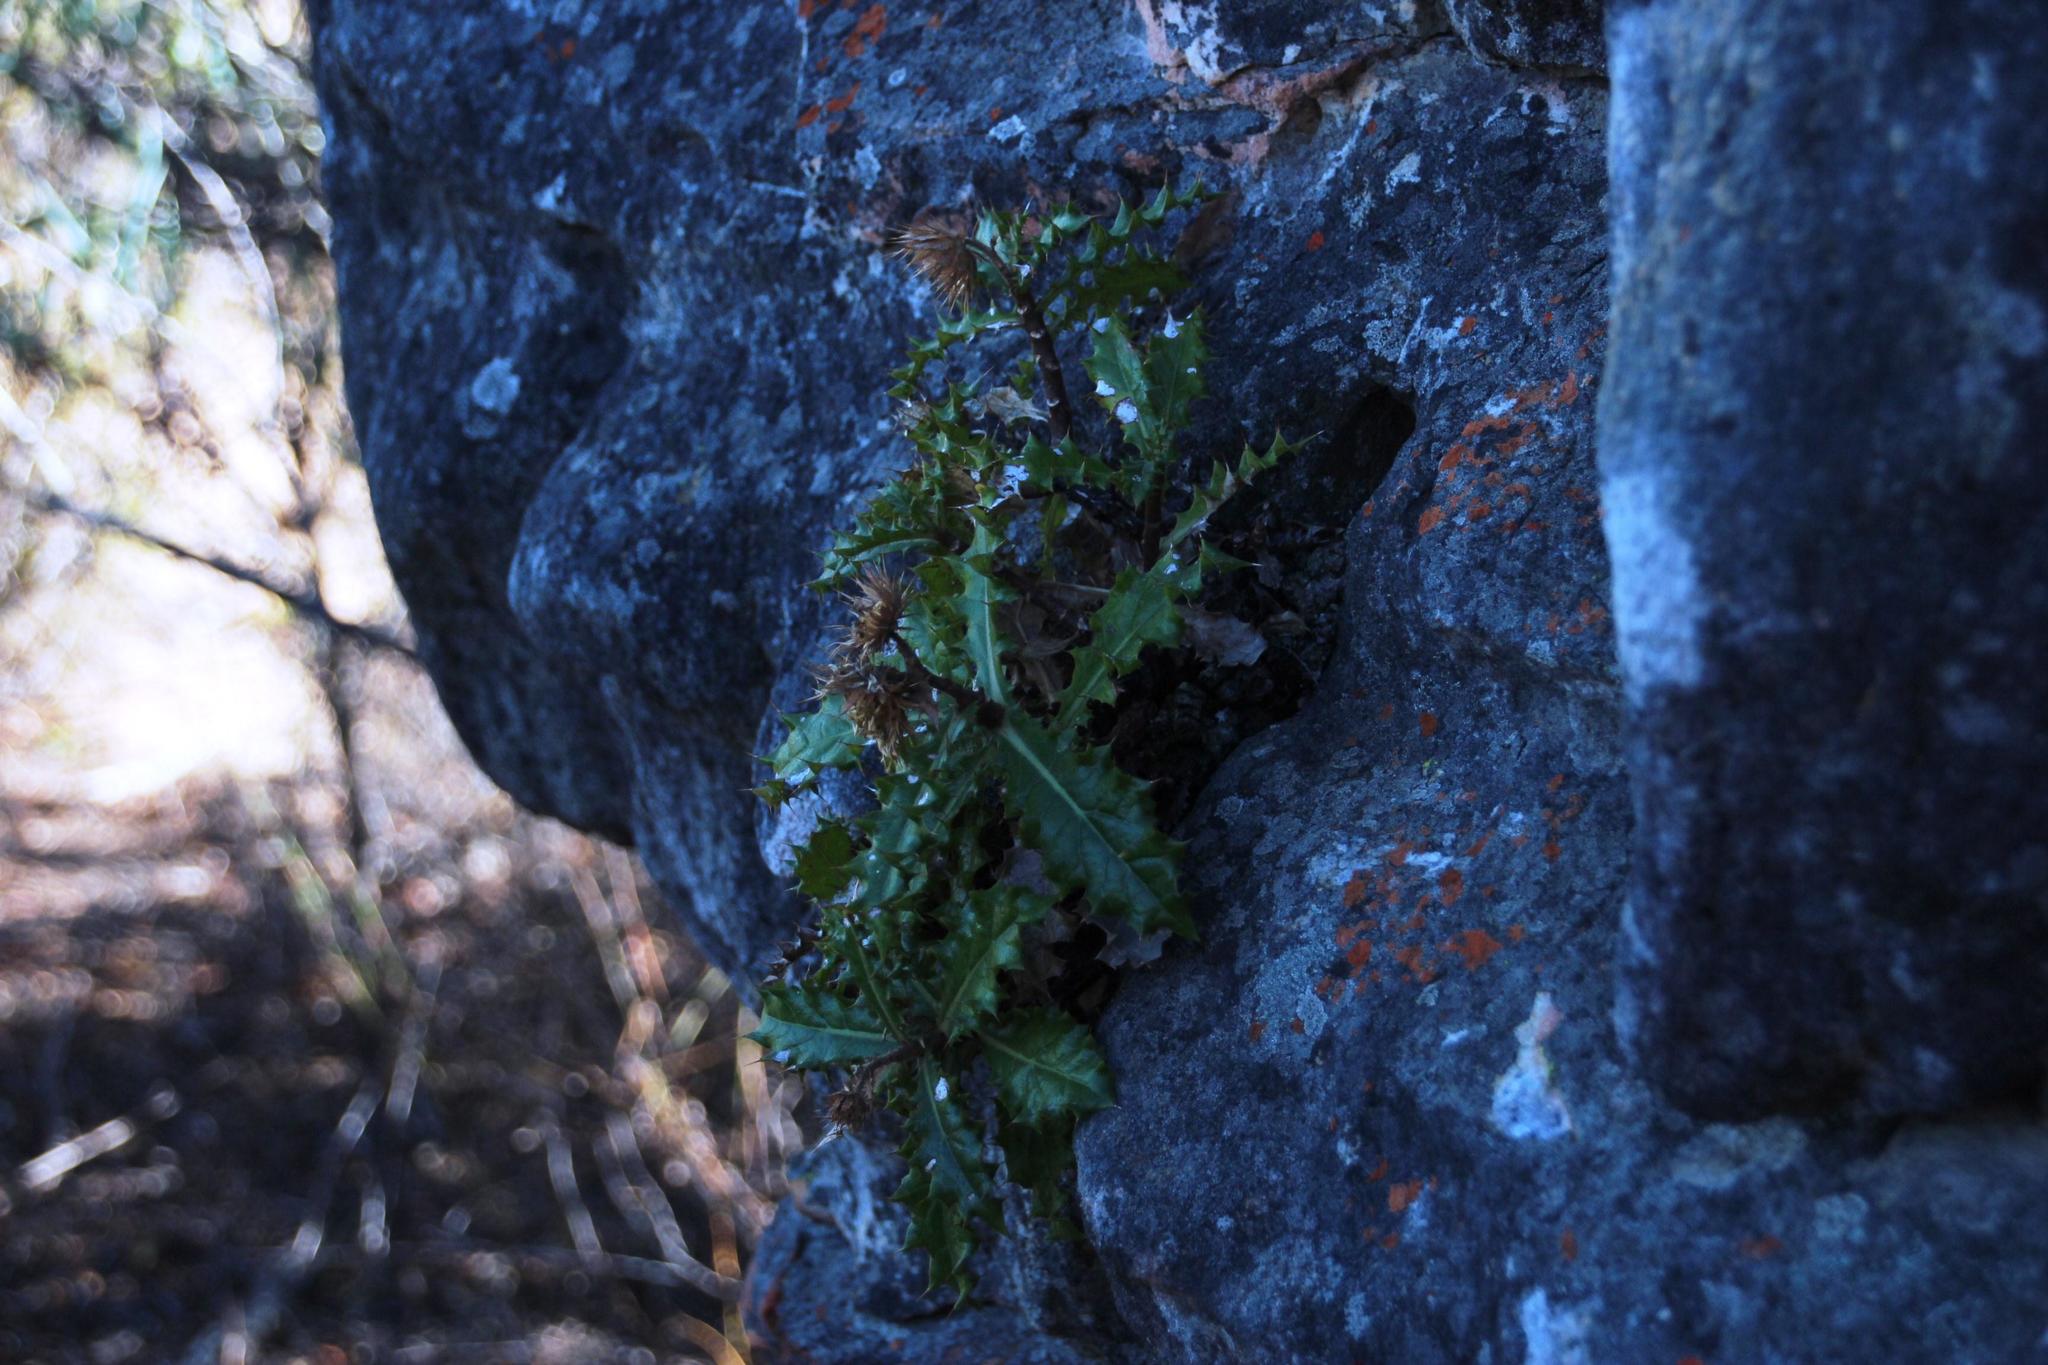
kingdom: Plantae
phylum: Tracheophyta
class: Magnoliopsida
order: Asterales
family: Asteraceae
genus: Berkheya
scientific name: Berkheya dregei
